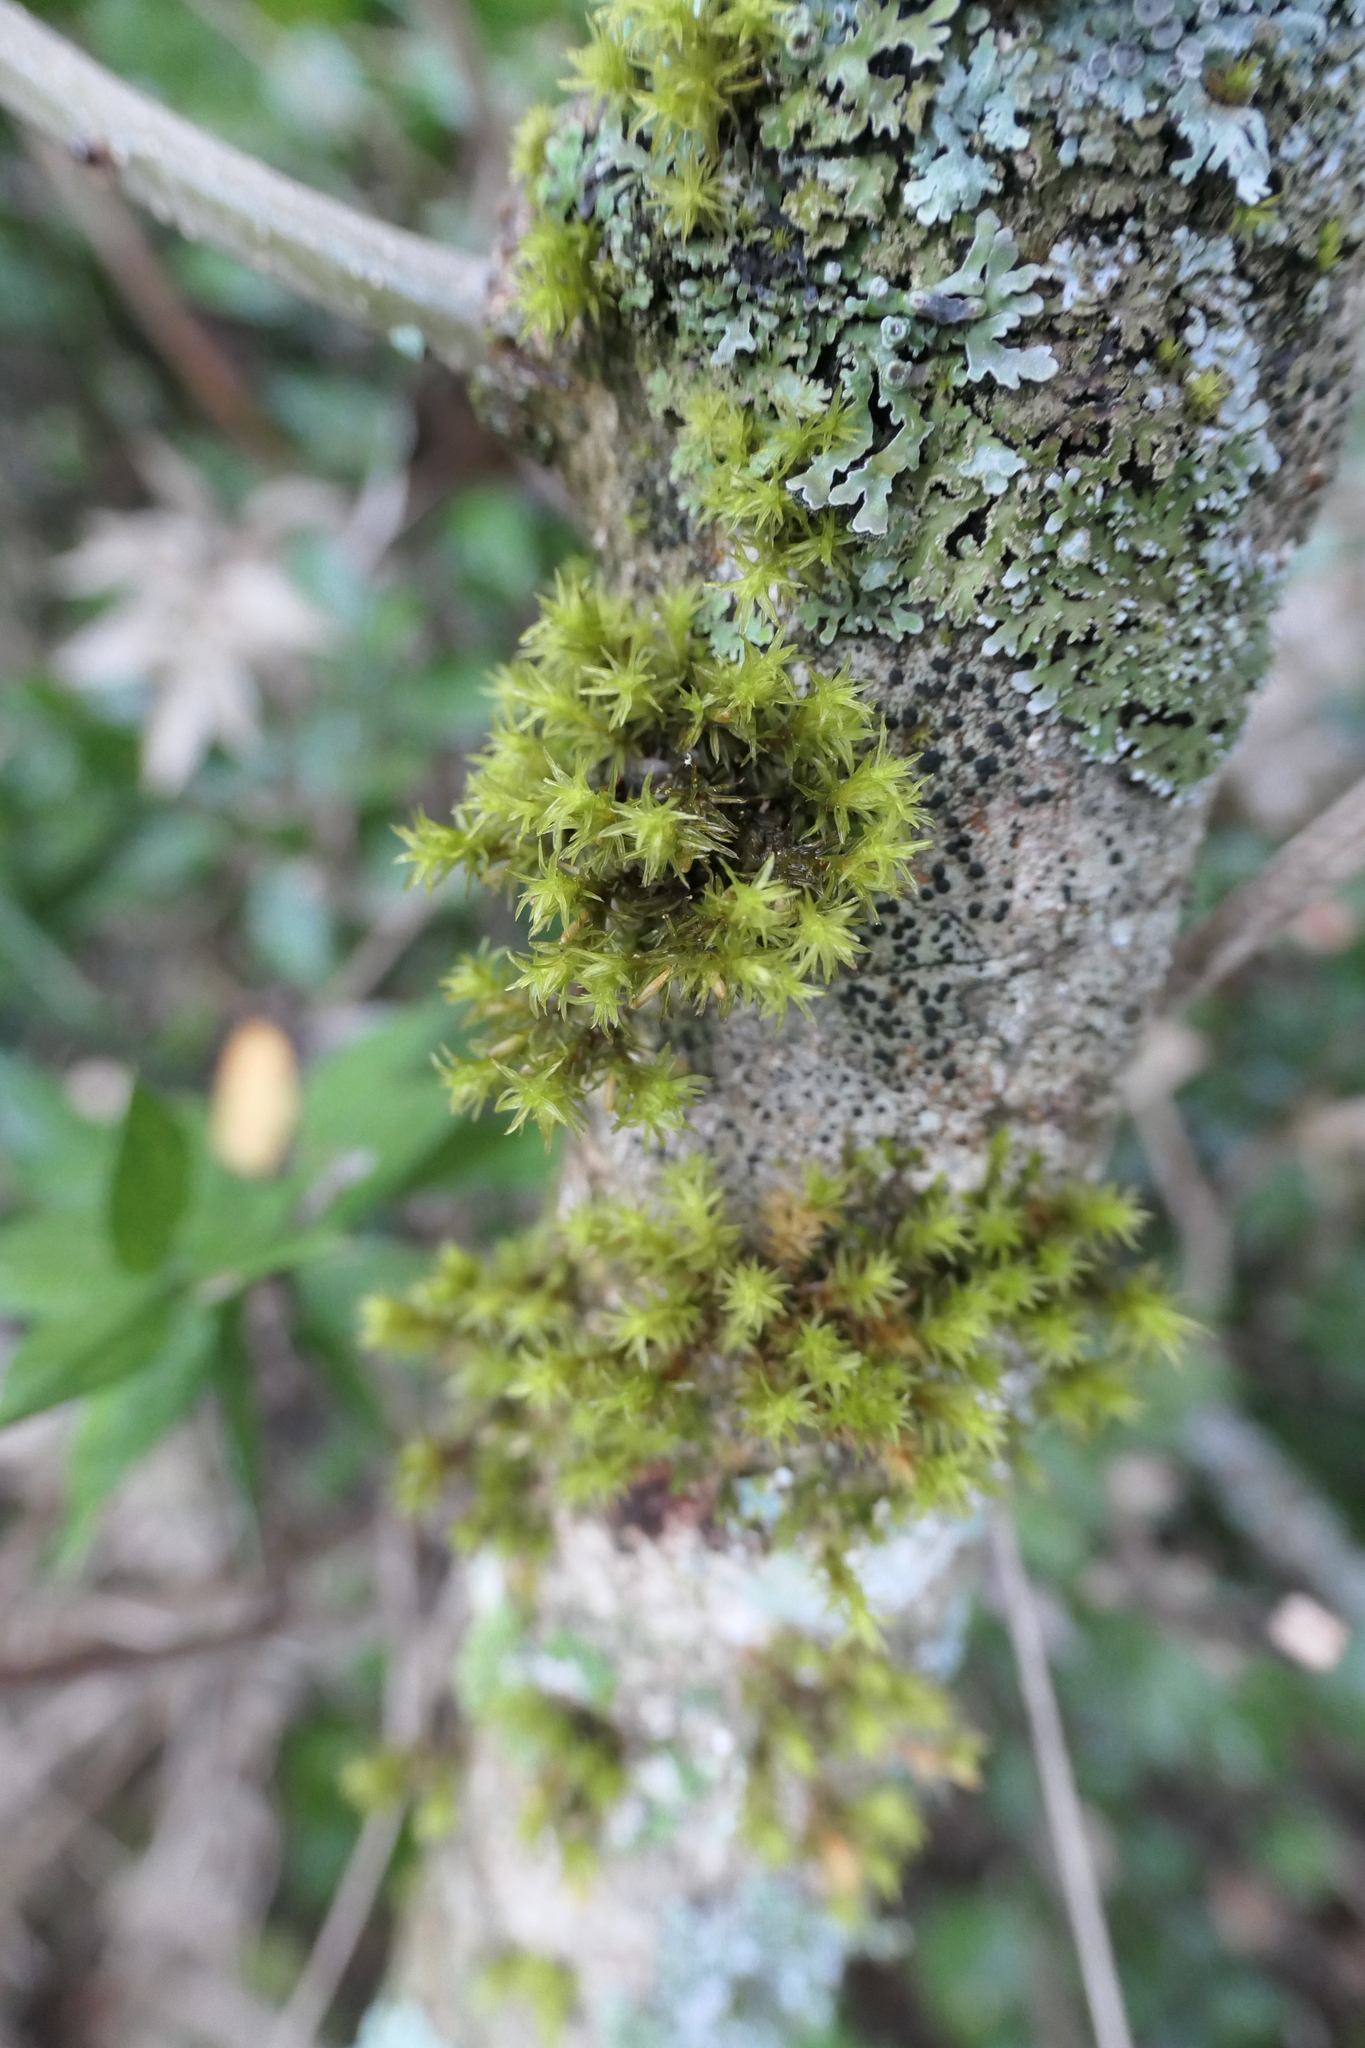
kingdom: Plantae
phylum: Bryophyta
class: Bryopsida
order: Orthotrichales
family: Orthotrichaceae
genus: Lewinskya
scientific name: Lewinskya affinis
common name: Wood bristle-moss
